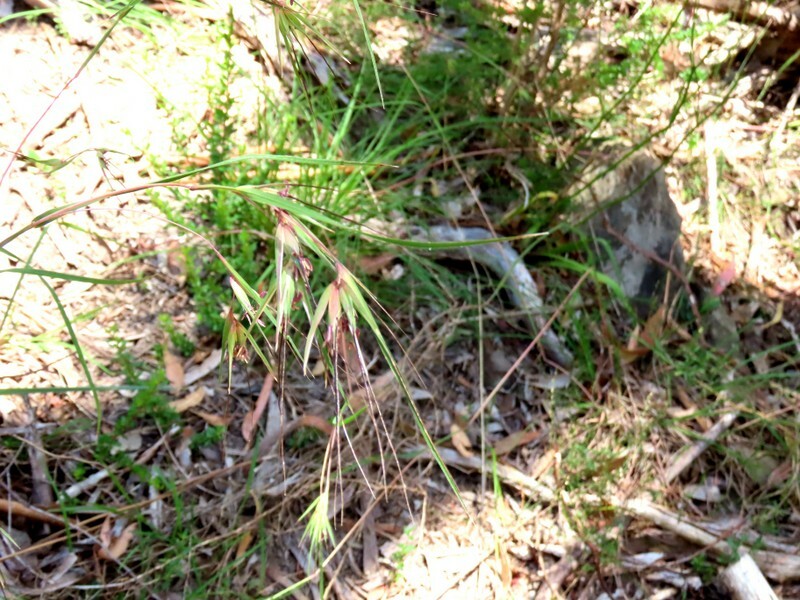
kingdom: Plantae
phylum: Tracheophyta
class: Liliopsida
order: Poales
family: Poaceae
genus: Themeda
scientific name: Themeda triandra
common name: Kangaroo grass
